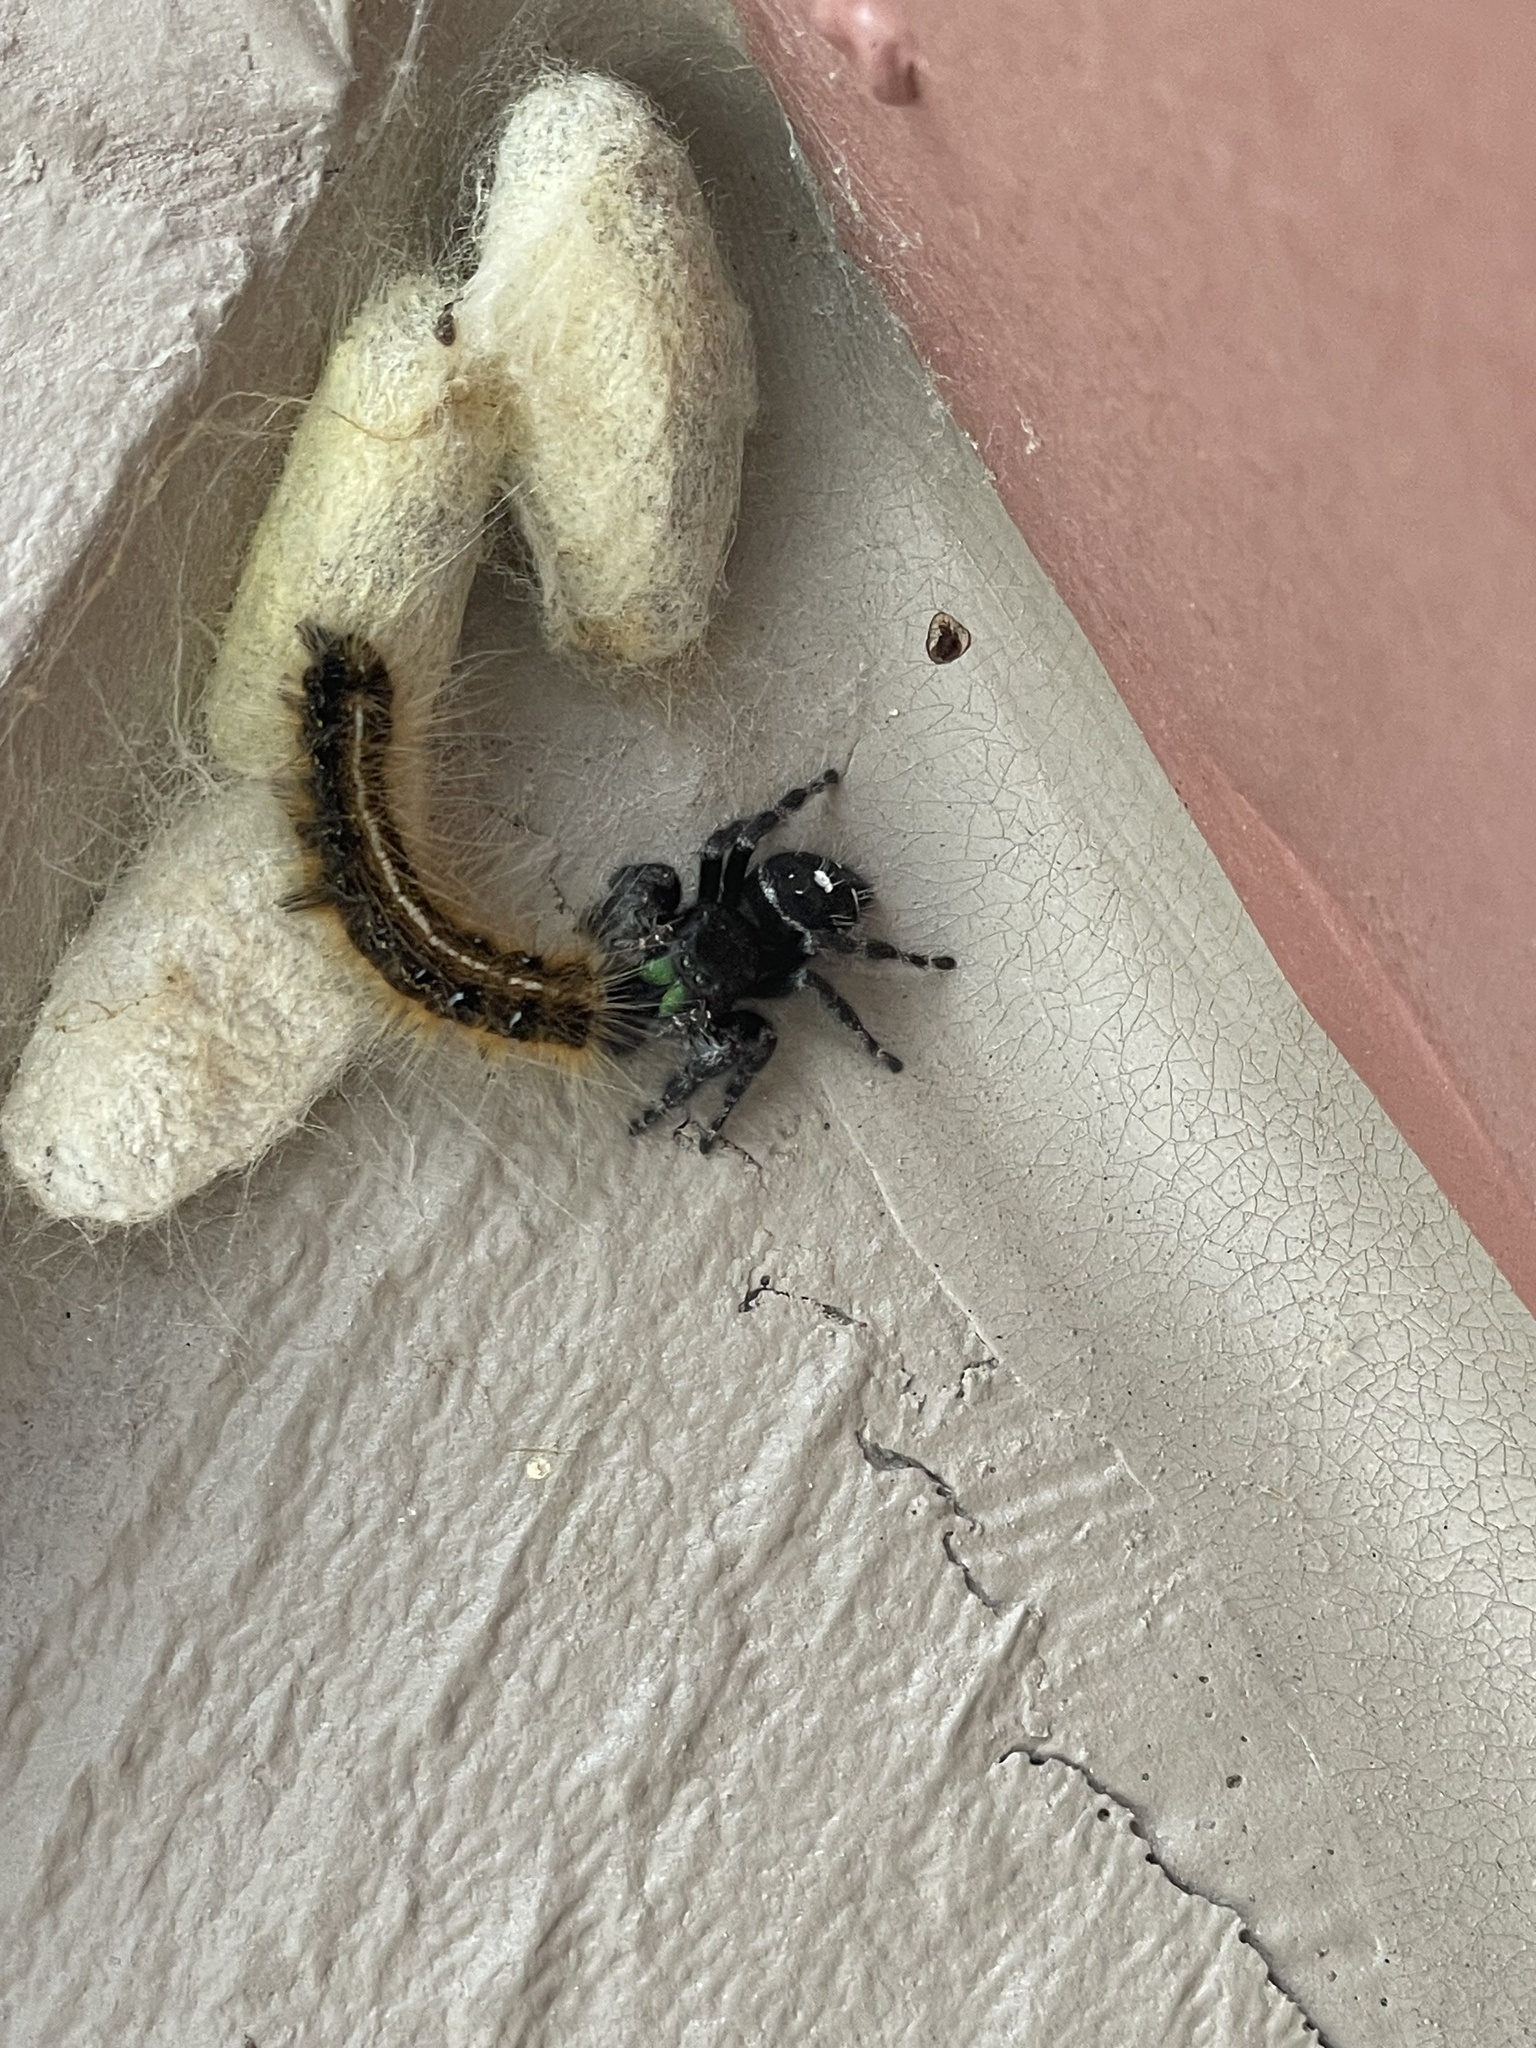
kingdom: Animalia
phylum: Arthropoda
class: Arachnida
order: Araneae
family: Salticidae
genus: Phidippus
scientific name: Phidippus audax
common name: Bold jumper
